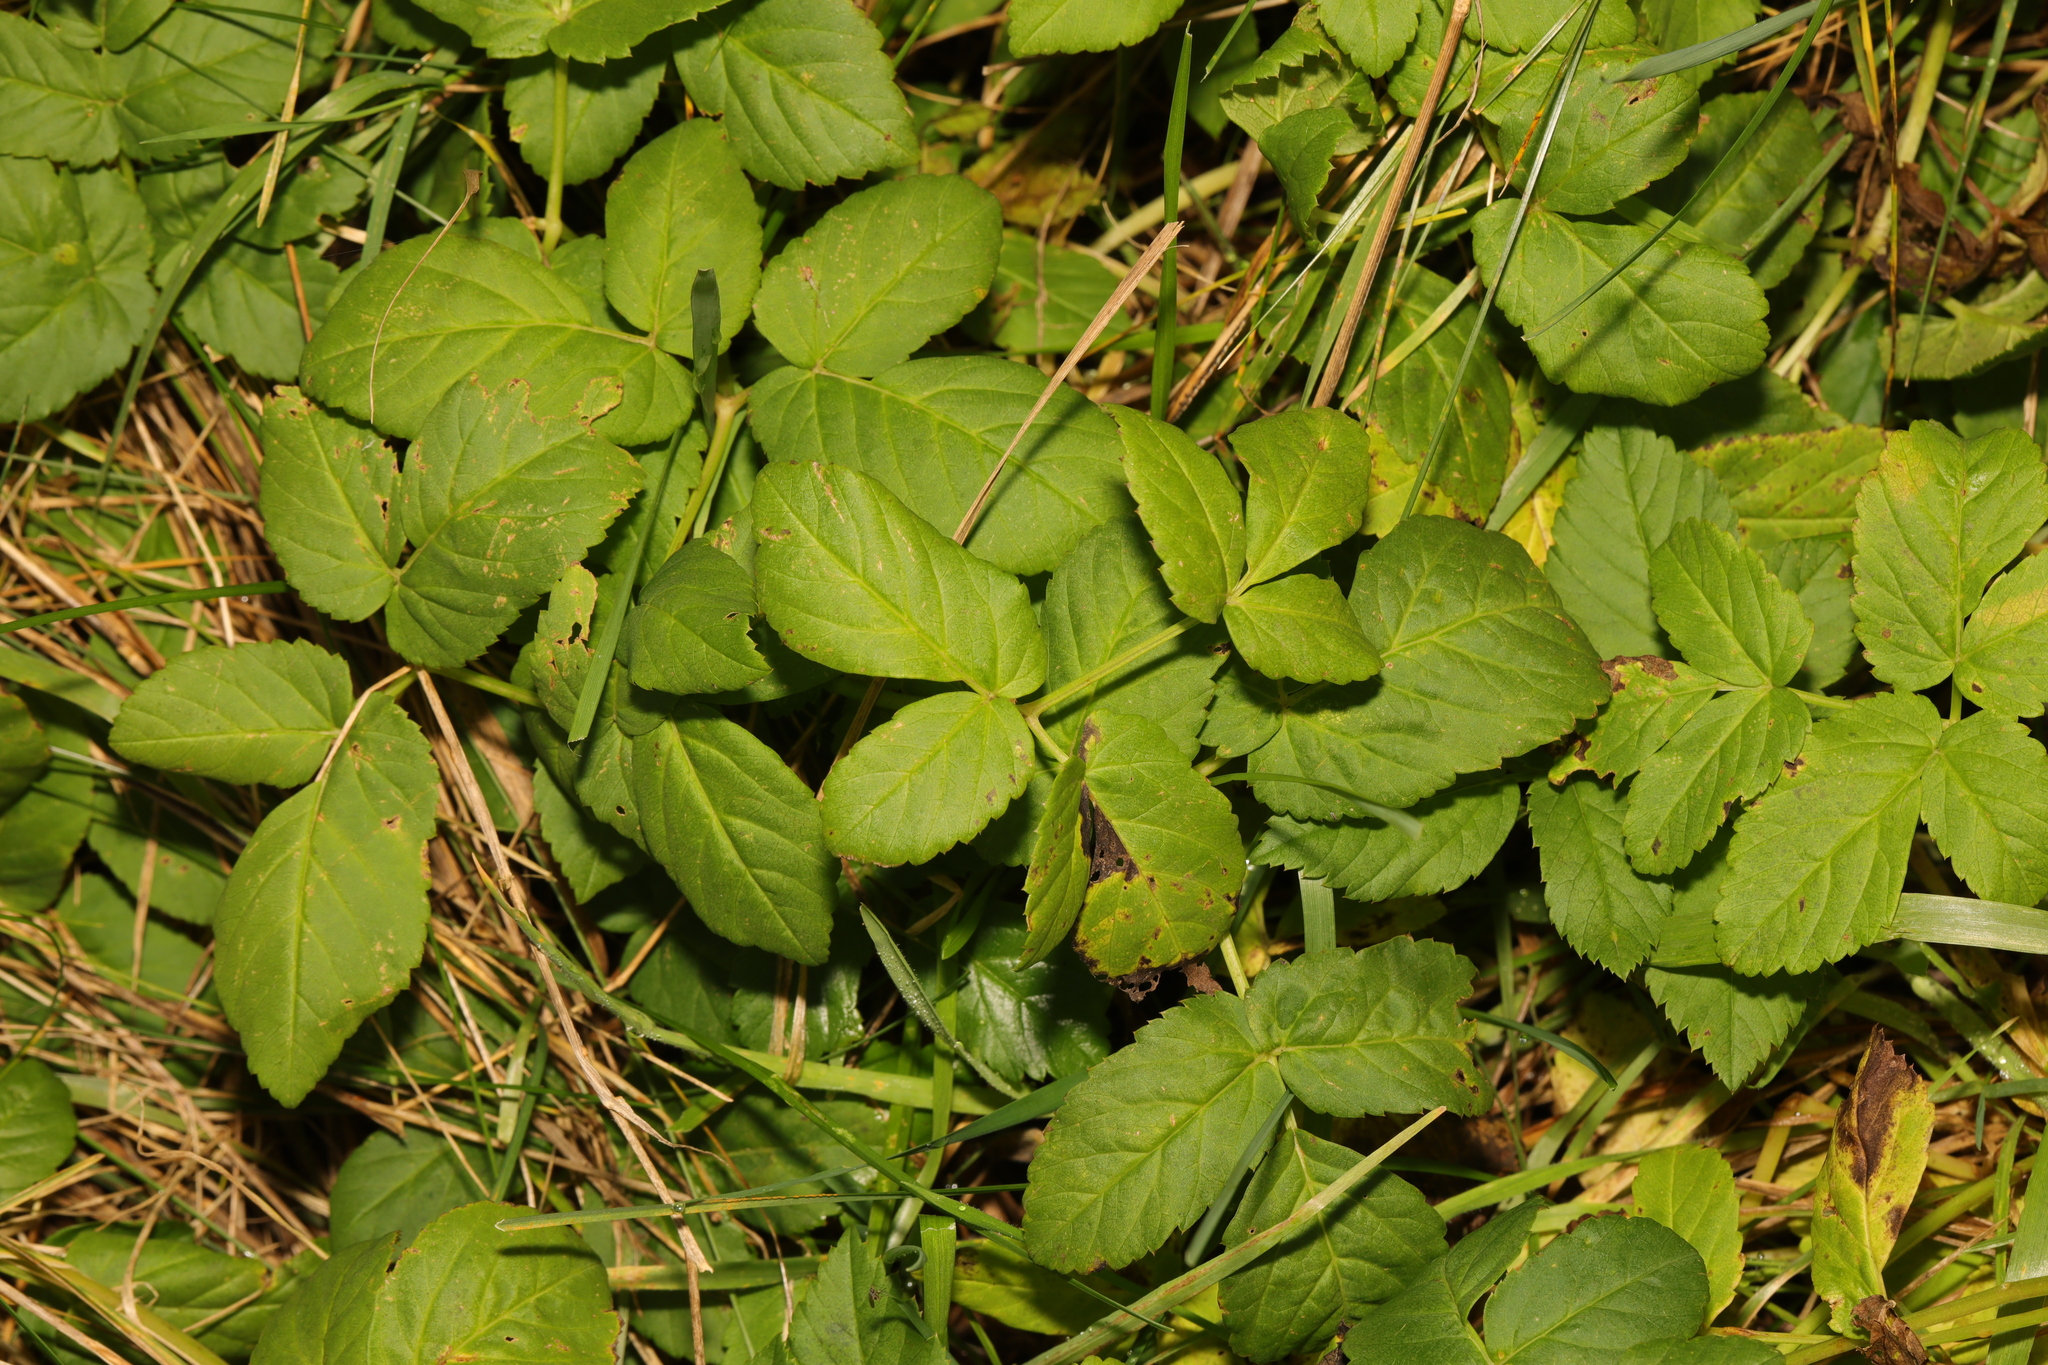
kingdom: Plantae
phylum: Tracheophyta
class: Magnoliopsida
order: Apiales
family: Apiaceae
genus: Aegopodium
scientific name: Aegopodium podagraria
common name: Ground-elder
